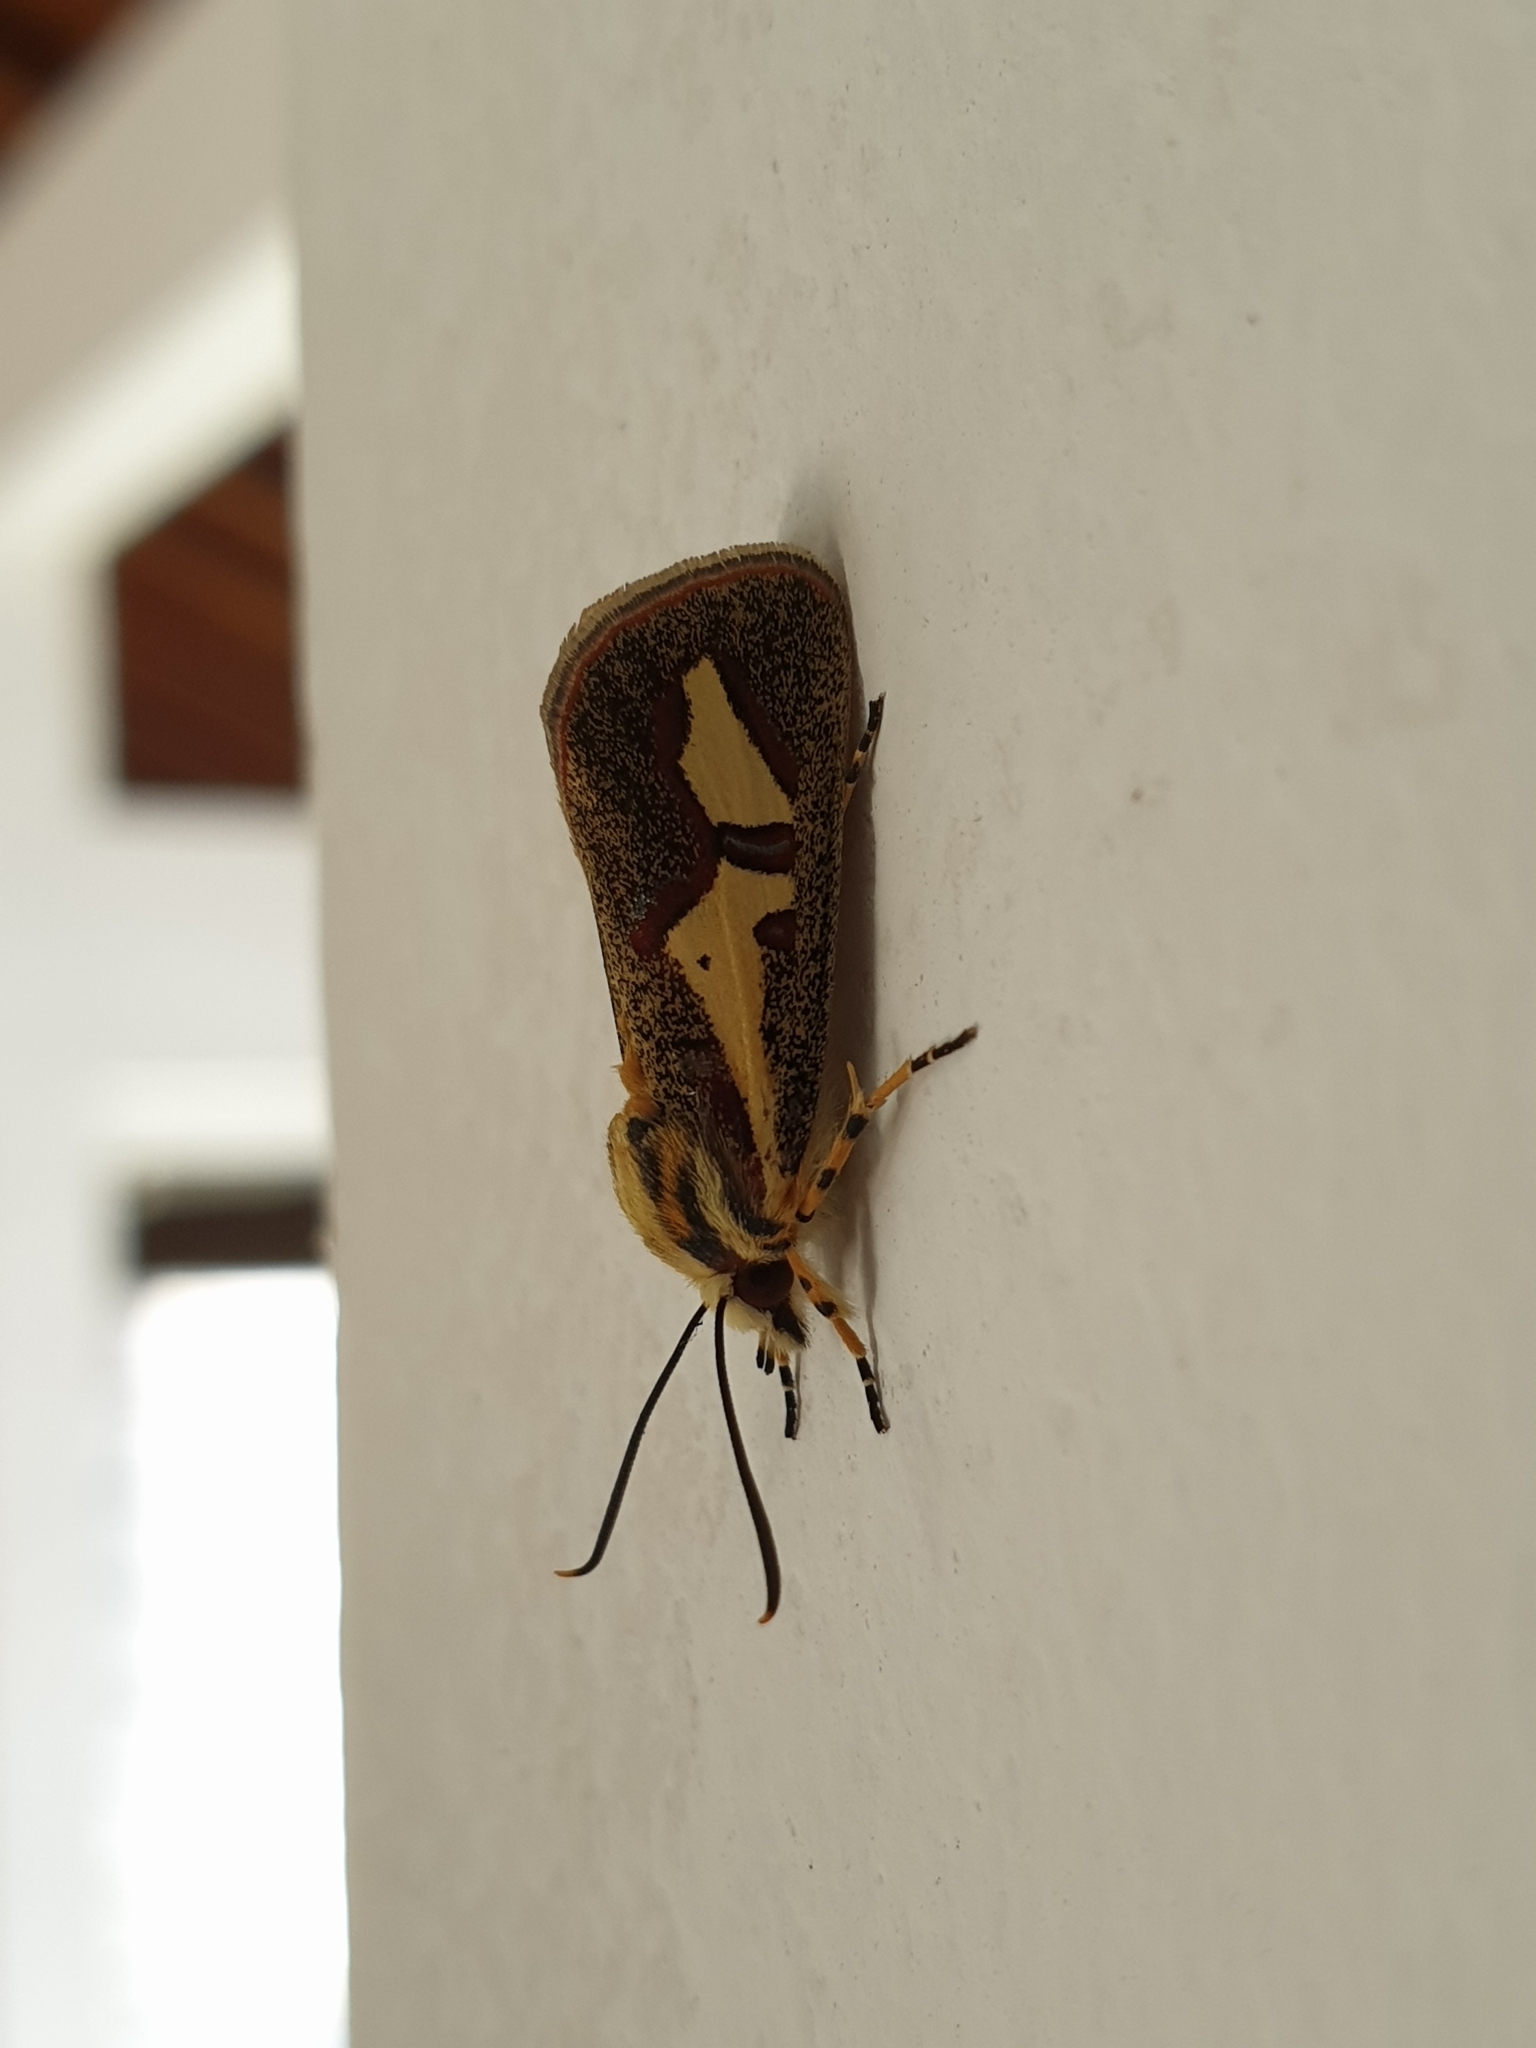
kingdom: Animalia
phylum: Arthropoda
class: Insecta
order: Lepidoptera
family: Noctuidae
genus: Aegocera
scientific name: Aegocera venulia
